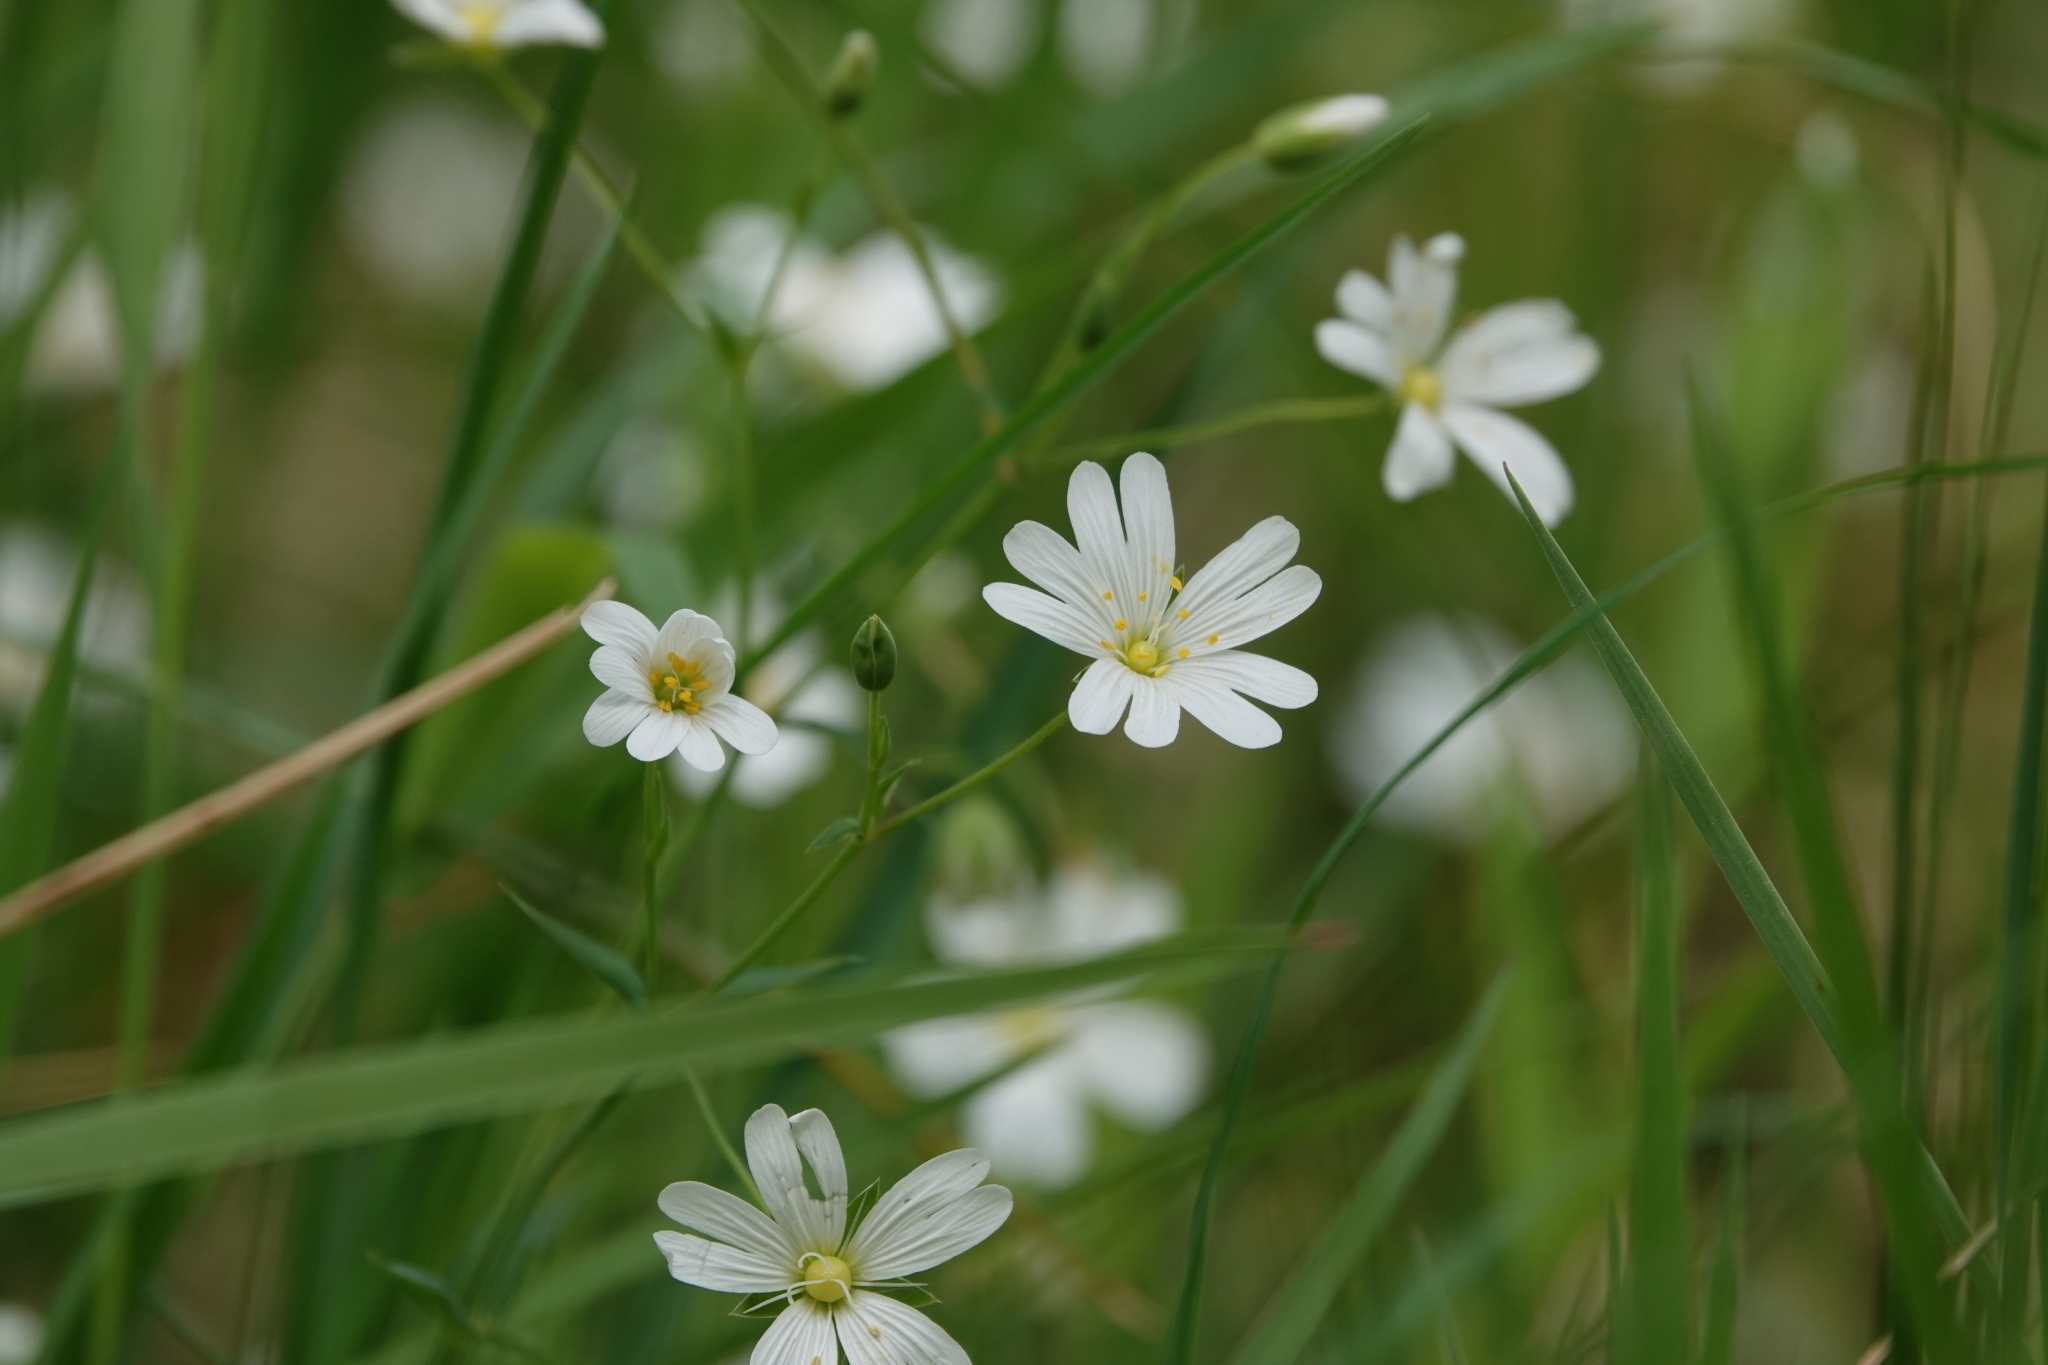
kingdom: Plantae
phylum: Tracheophyta
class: Magnoliopsida
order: Caryophyllales
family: Caryophyllaceae
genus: Rabelera
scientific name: Rabelera holostea
